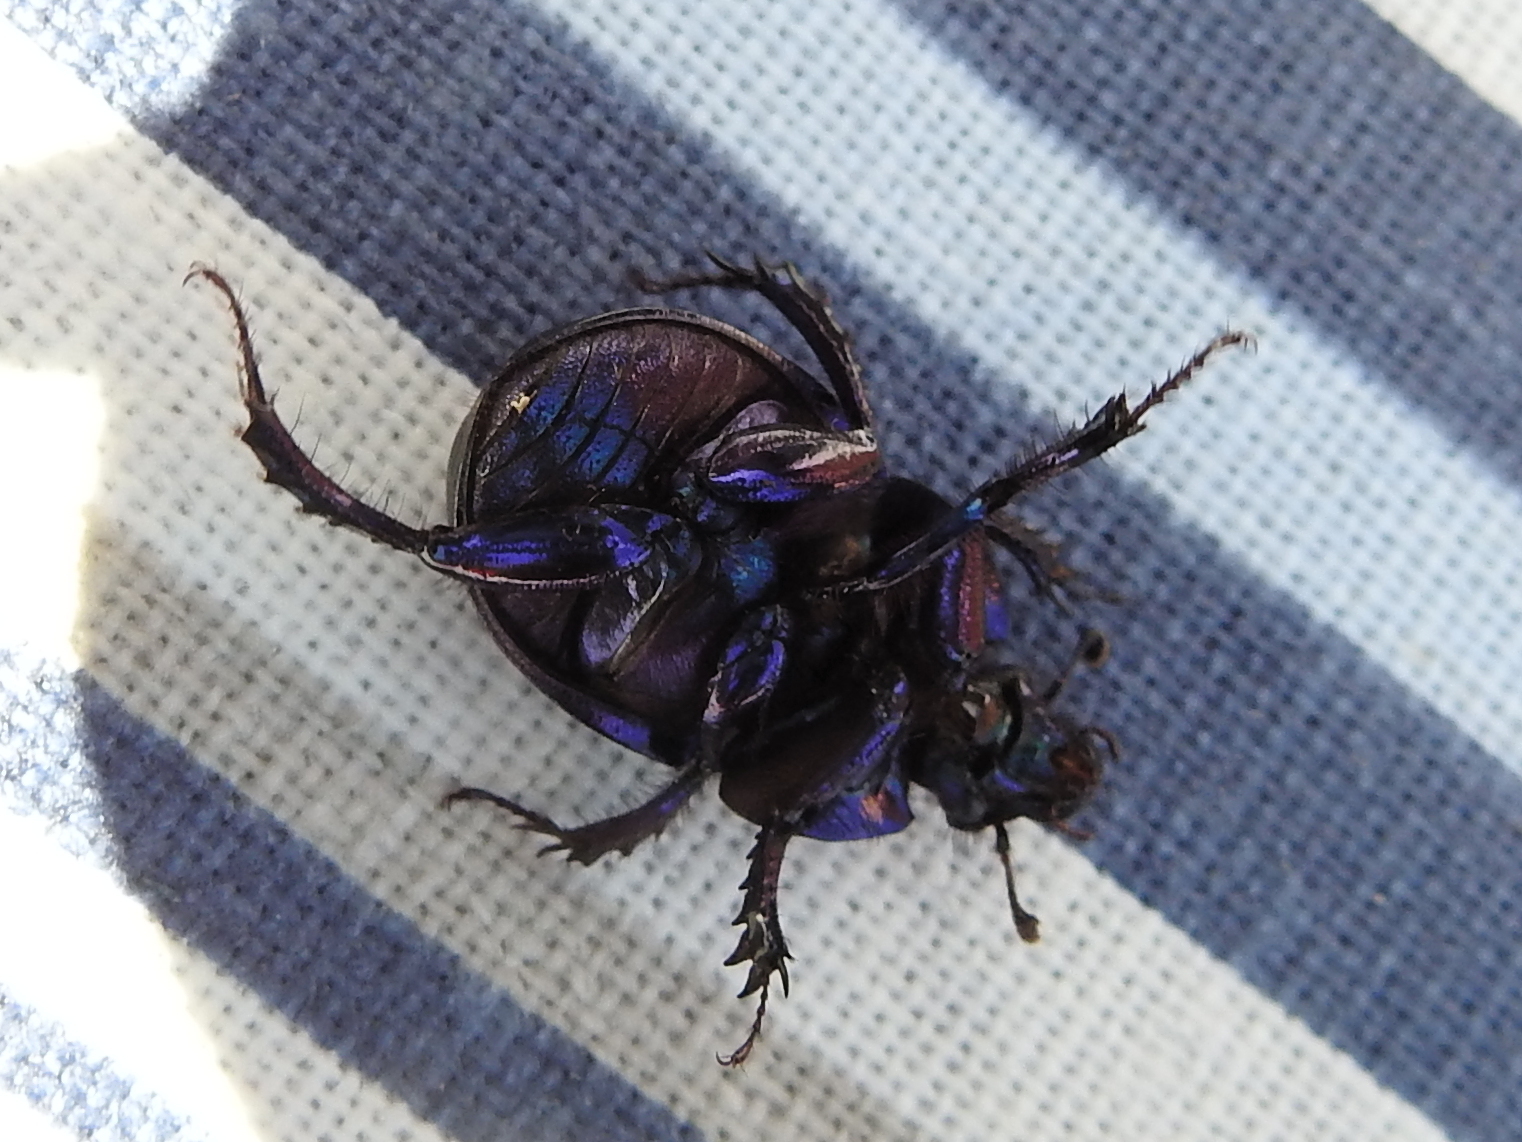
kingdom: Animalia
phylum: Arthropoda
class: Insecta
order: Coleoptera
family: Geotrupidae
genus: Anoplotrupes
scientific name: Anoplotrupes stercorosus
